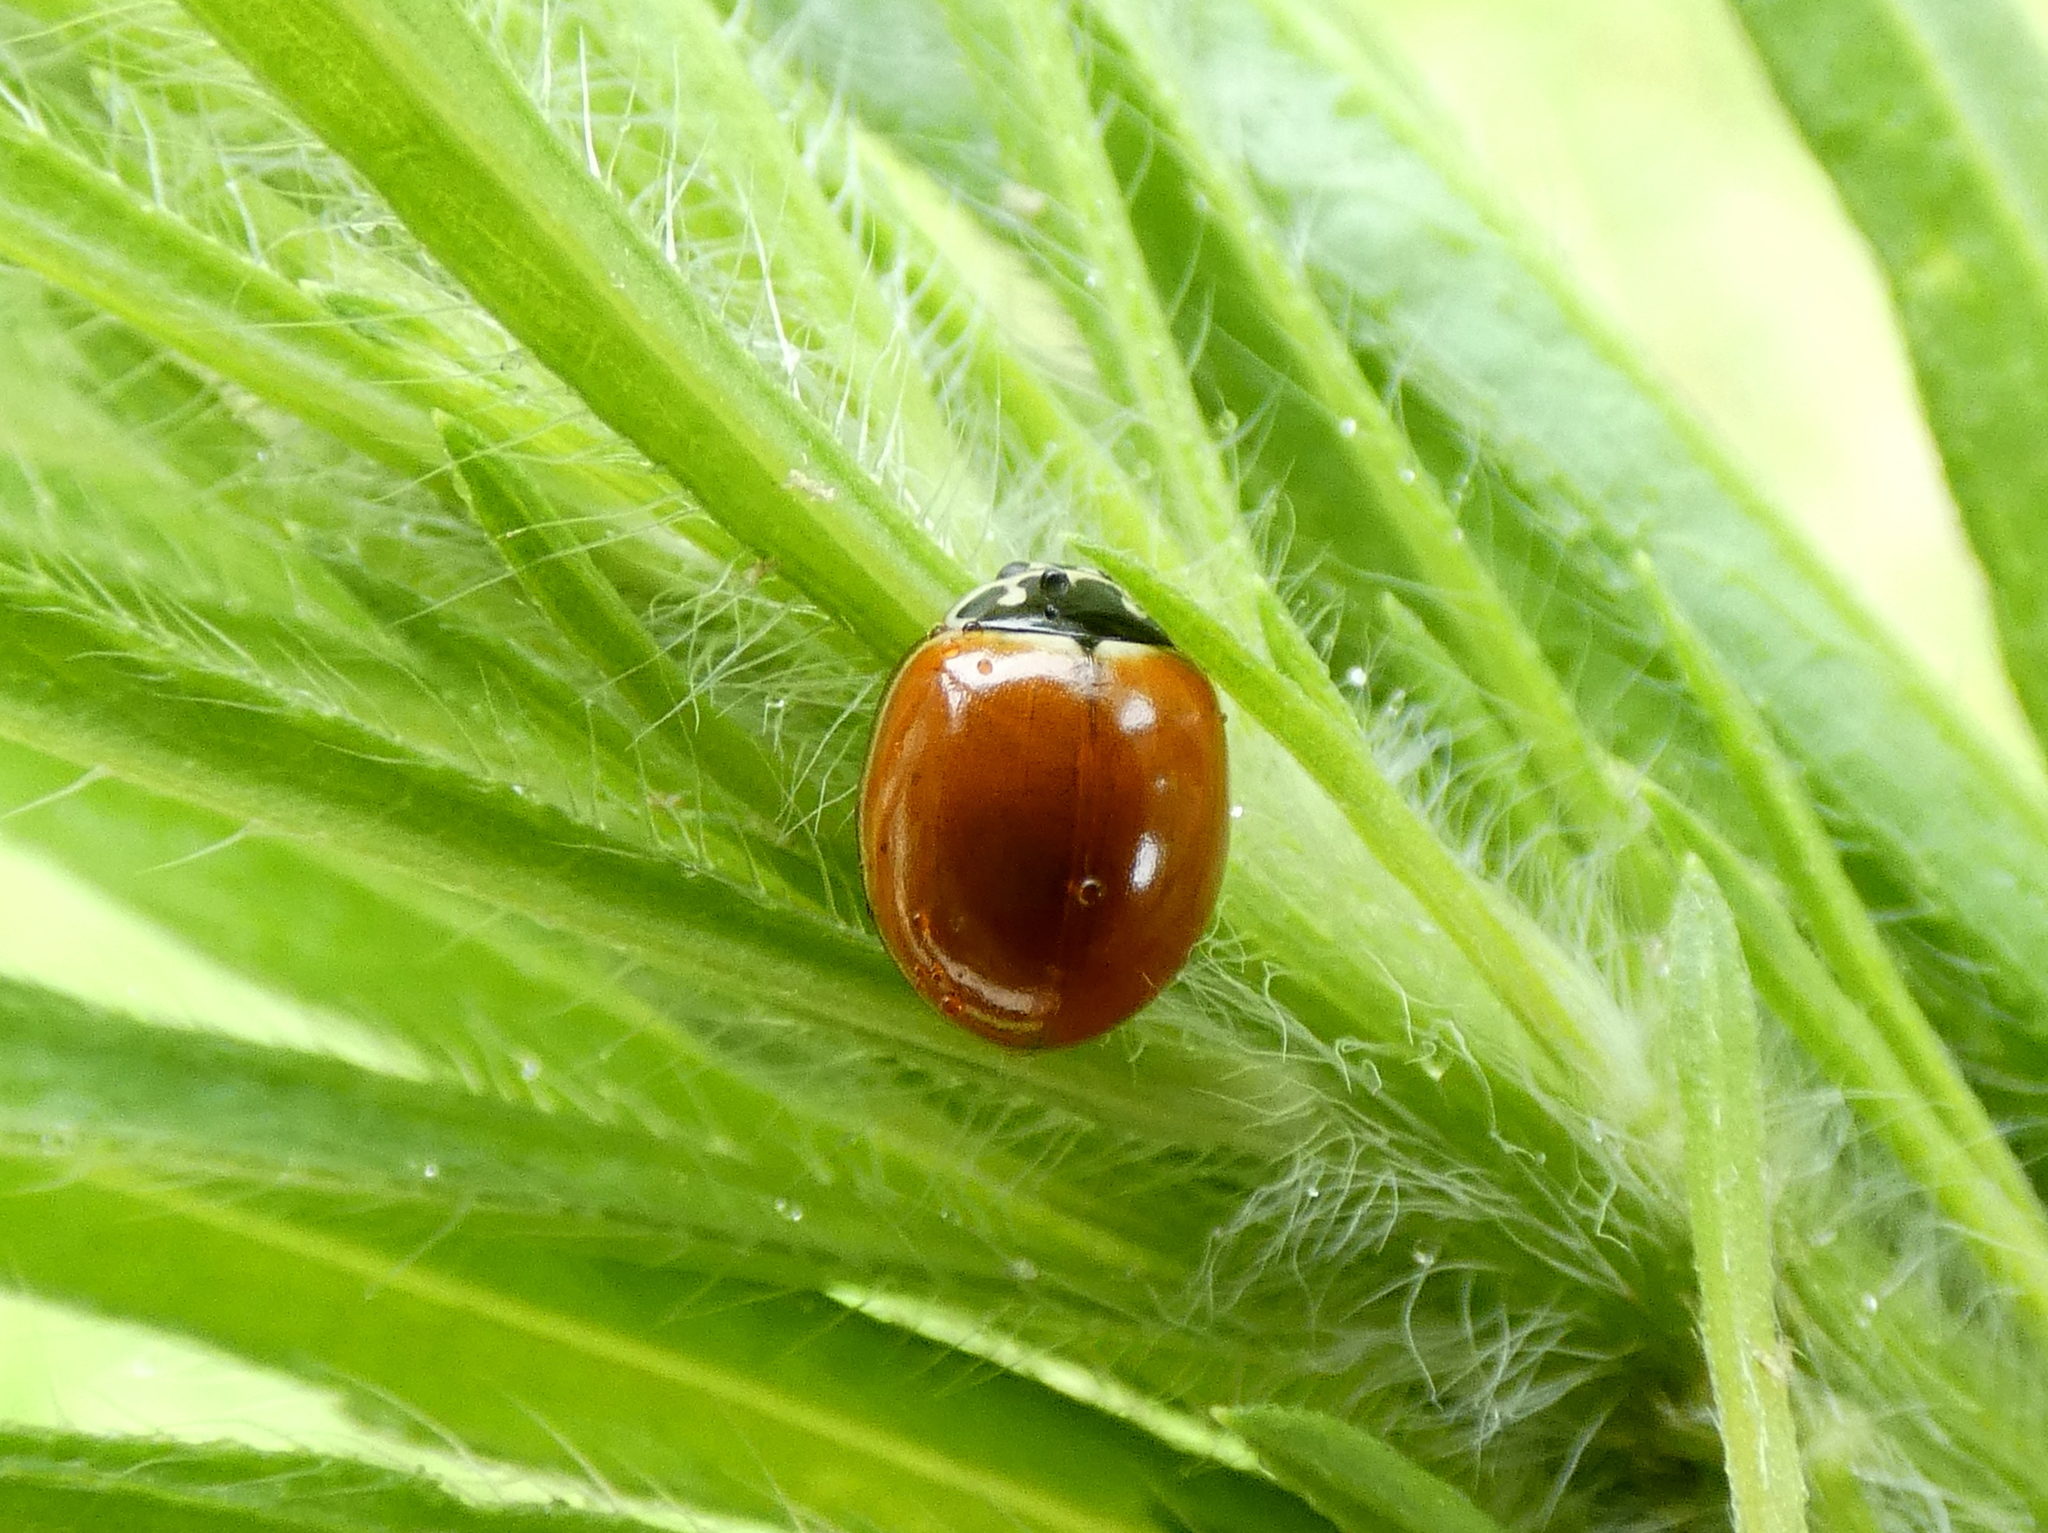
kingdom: Animalia
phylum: Arthropoda
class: Insecta
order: Coleoptera
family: Coccinellidae
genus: Cycloneda
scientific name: Cycloneda munda
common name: Polished lady beetle
